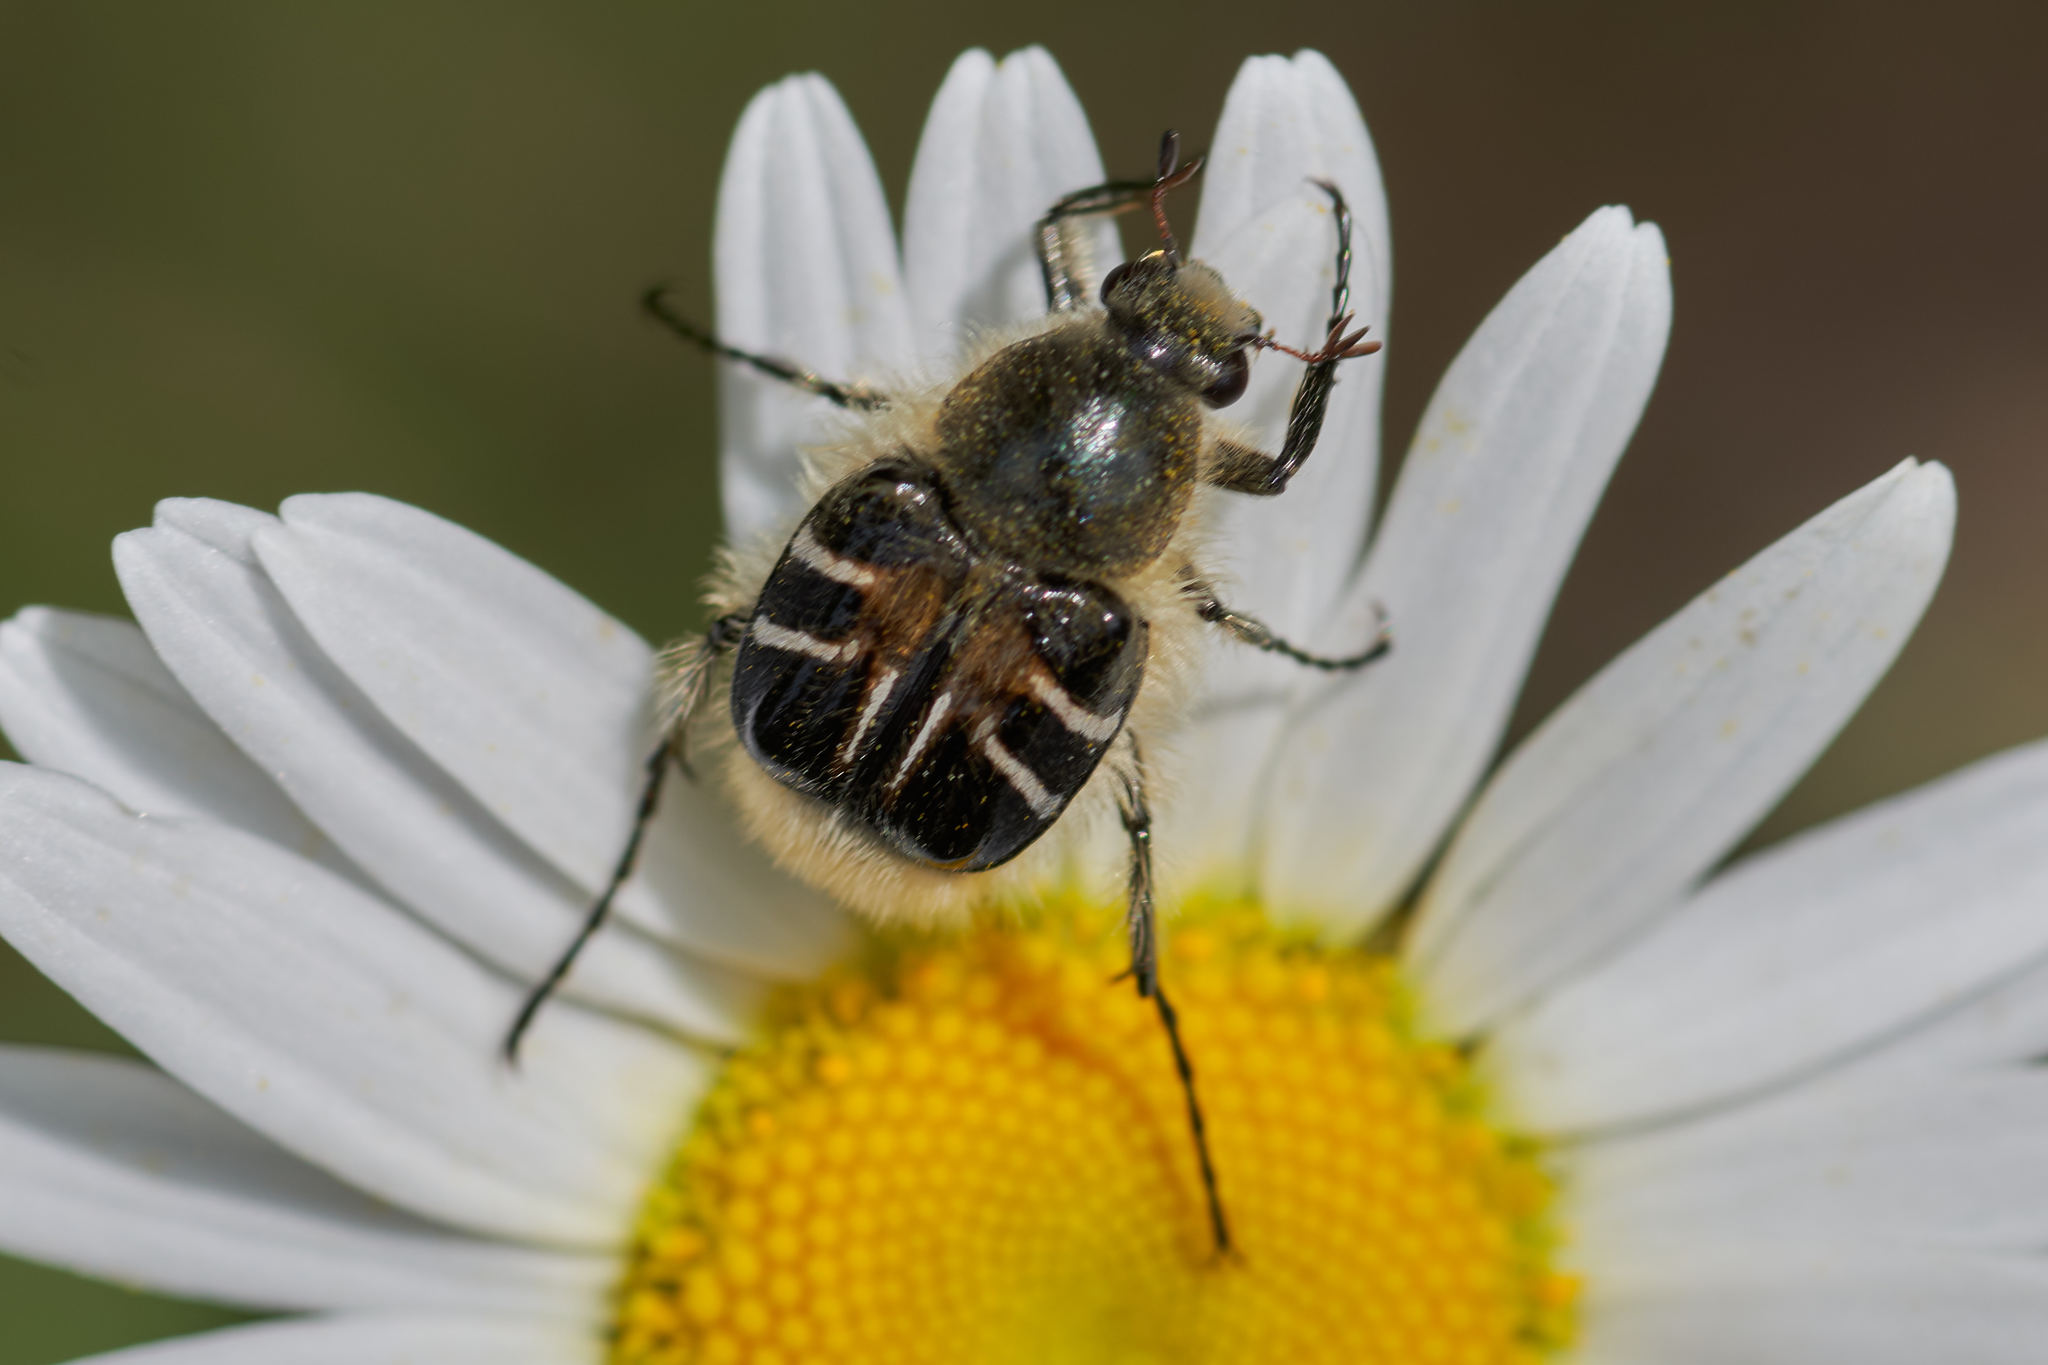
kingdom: Animalia
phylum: Arthropoda
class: Insecta
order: Coleoptera
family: Scarabaeidae
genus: Trichiotinus
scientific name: Trichiotinus assimilis
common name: Bee-mimic beetle
